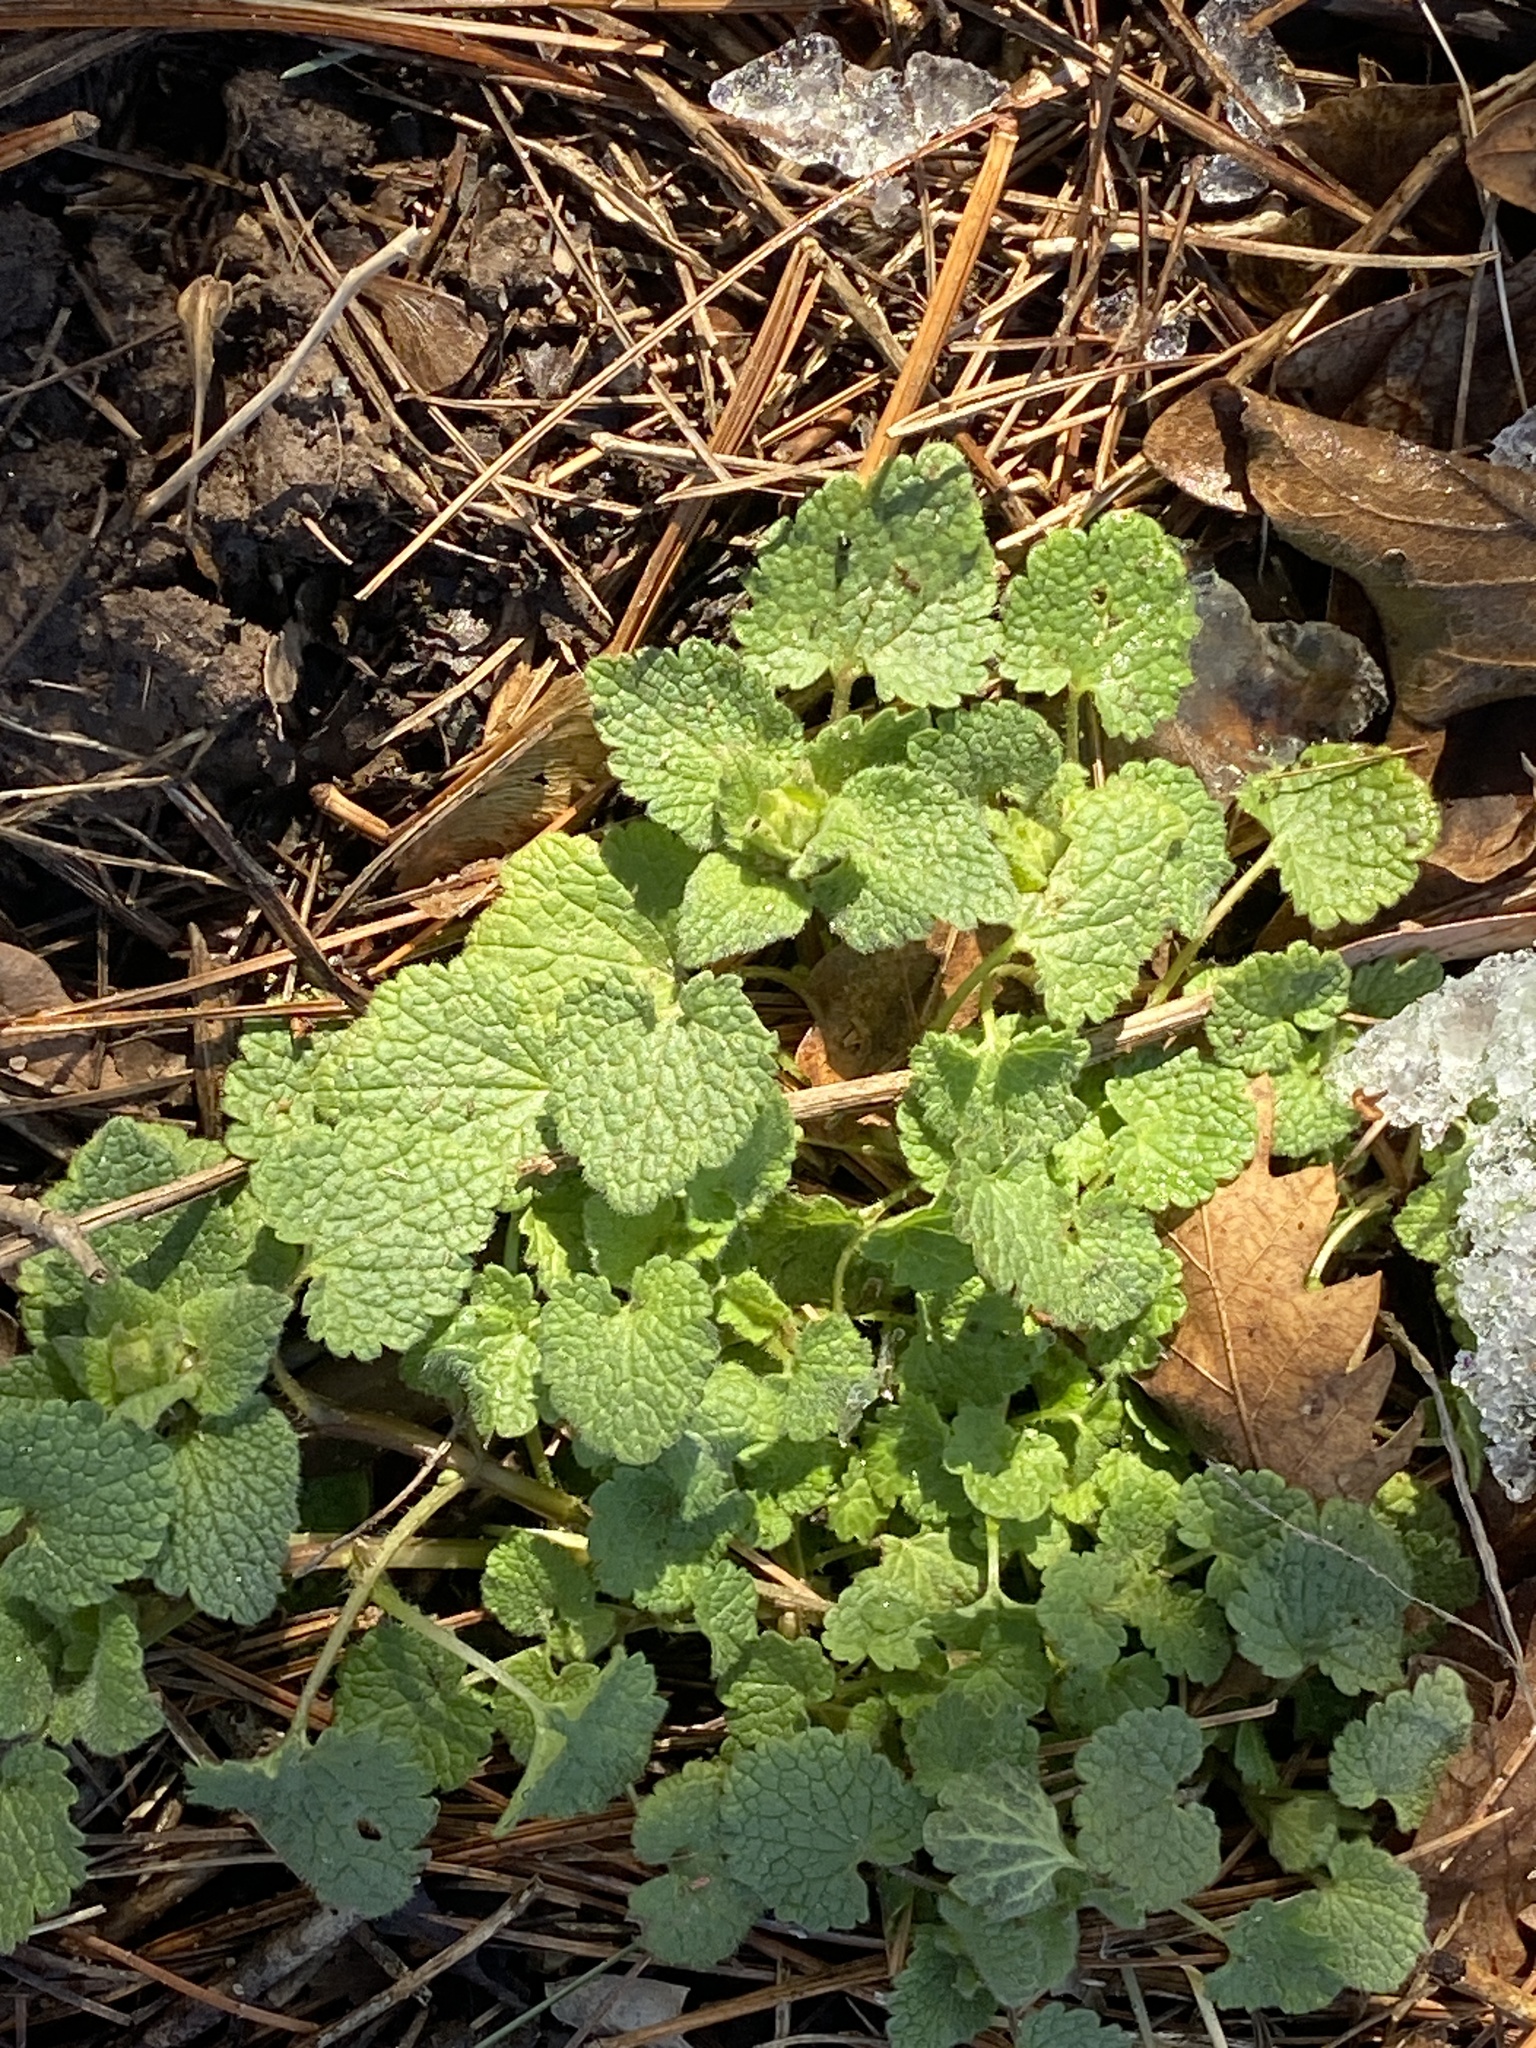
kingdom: Plantae
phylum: Tracheophyta
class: Magnoliopsida
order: Lamiales
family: Lamiaceae
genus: Lamium
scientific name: Lamium purpureum
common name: Red dead-nettle
